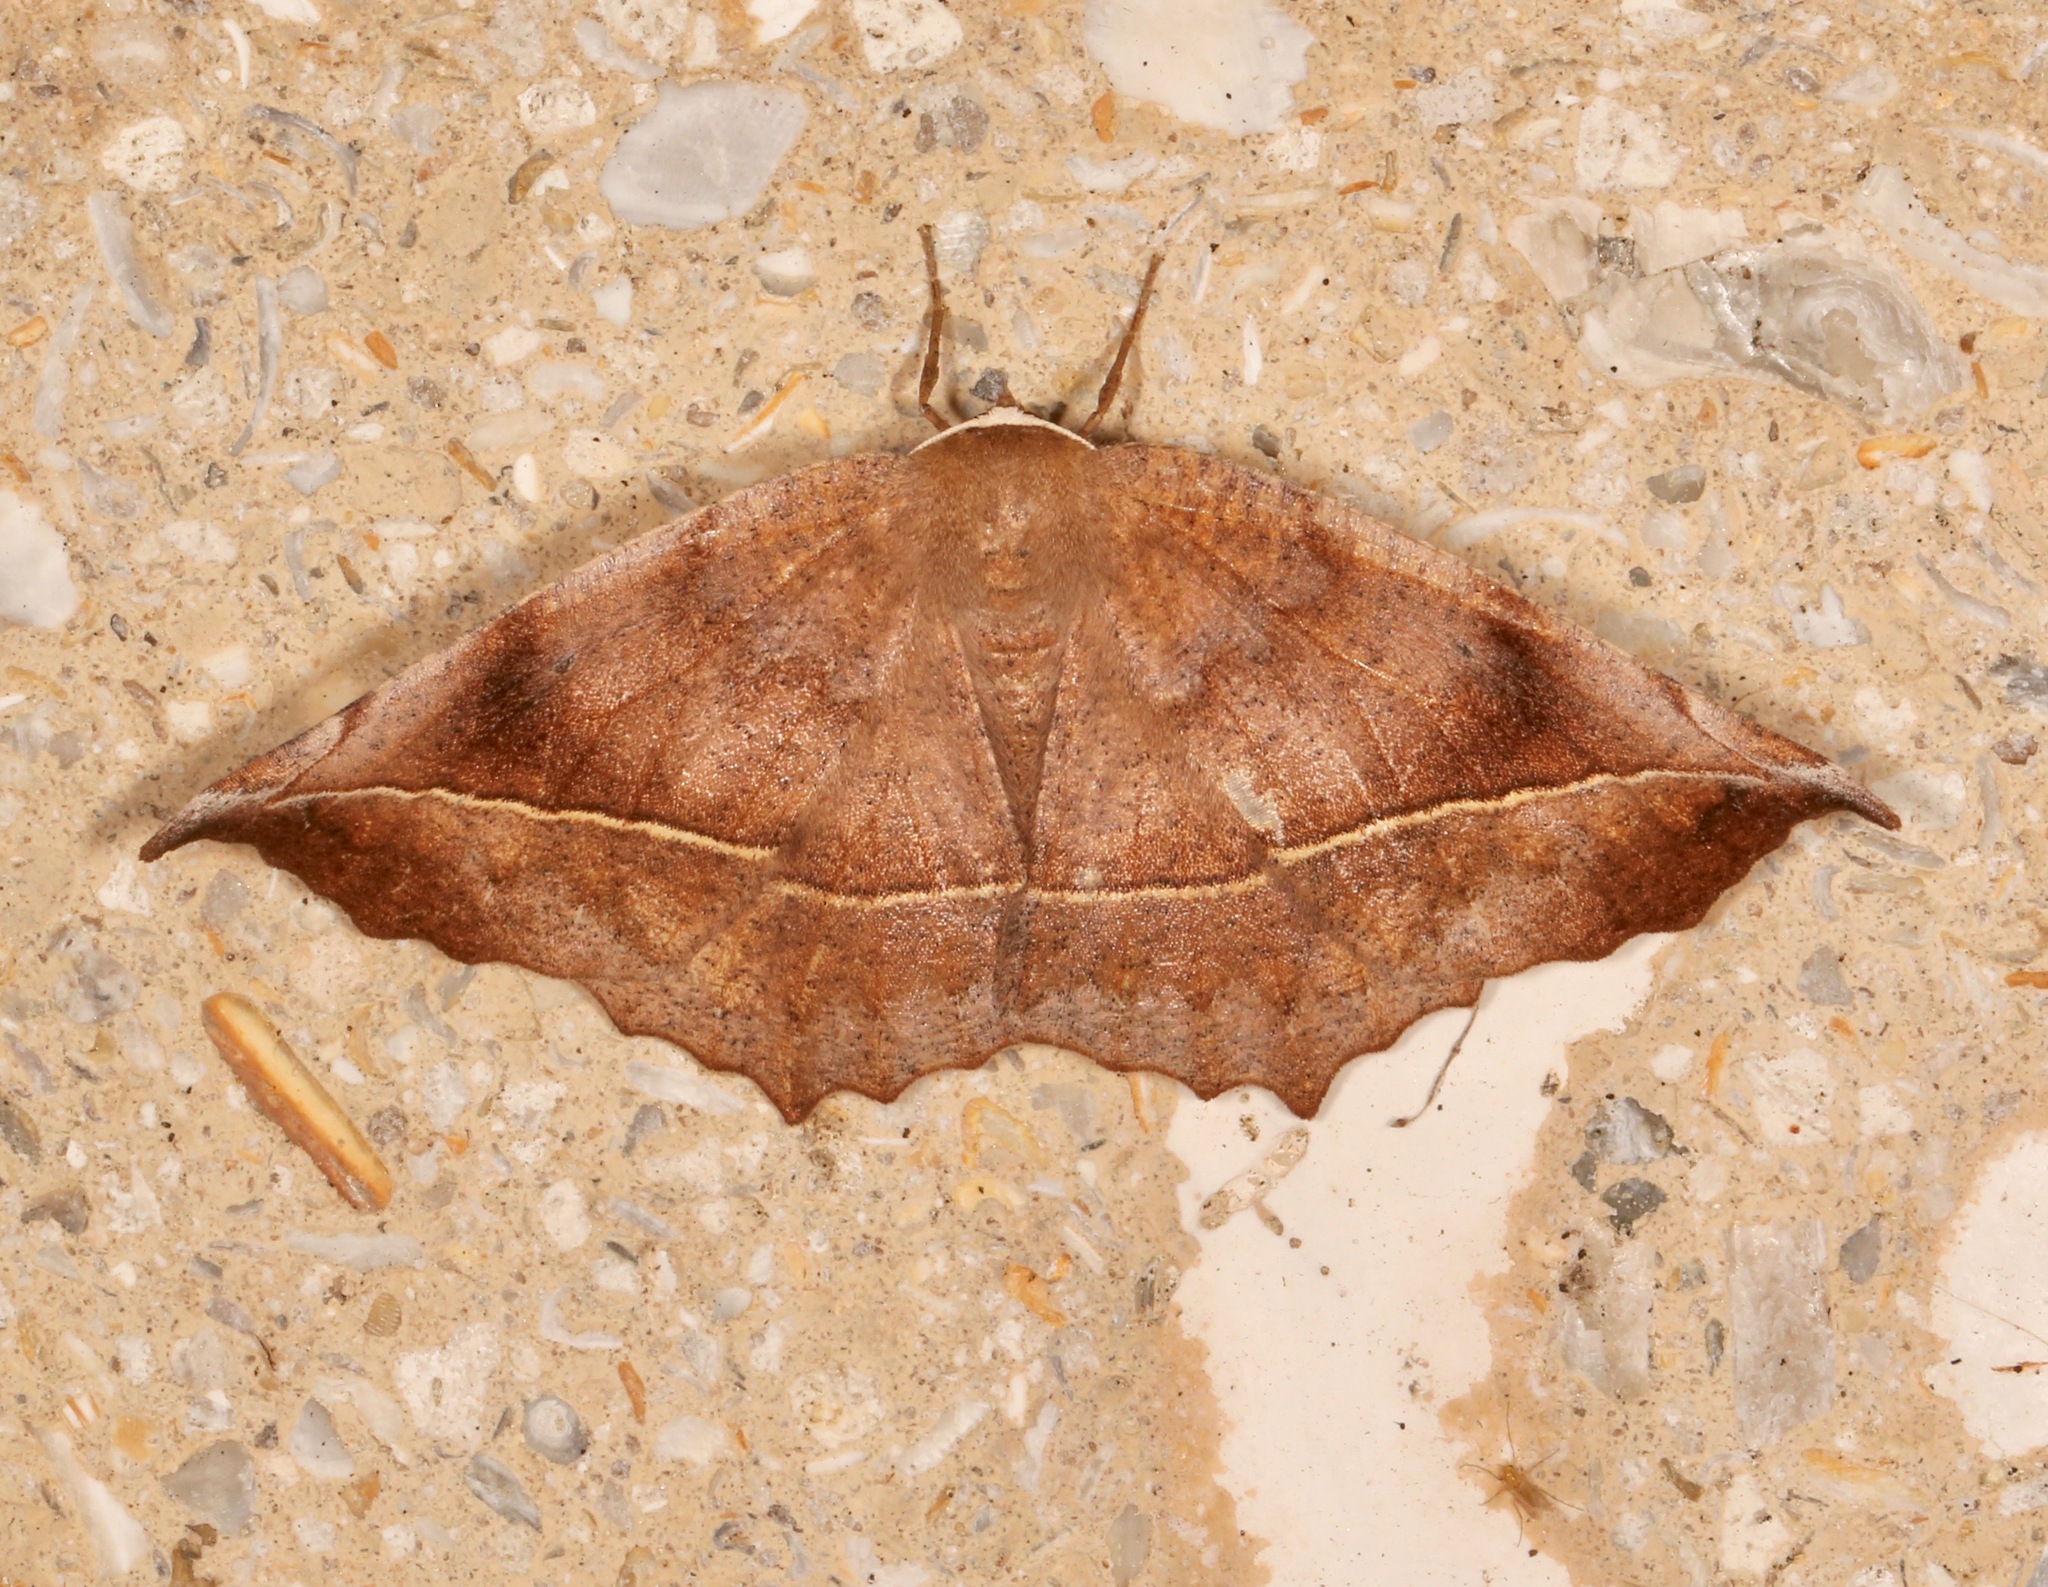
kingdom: Animalia
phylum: Arthropoda
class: Insecta
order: Lepidoptera
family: Geometridae
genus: Eutrapela
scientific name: Eutrapela clemataria
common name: Curved-toothed geometer
